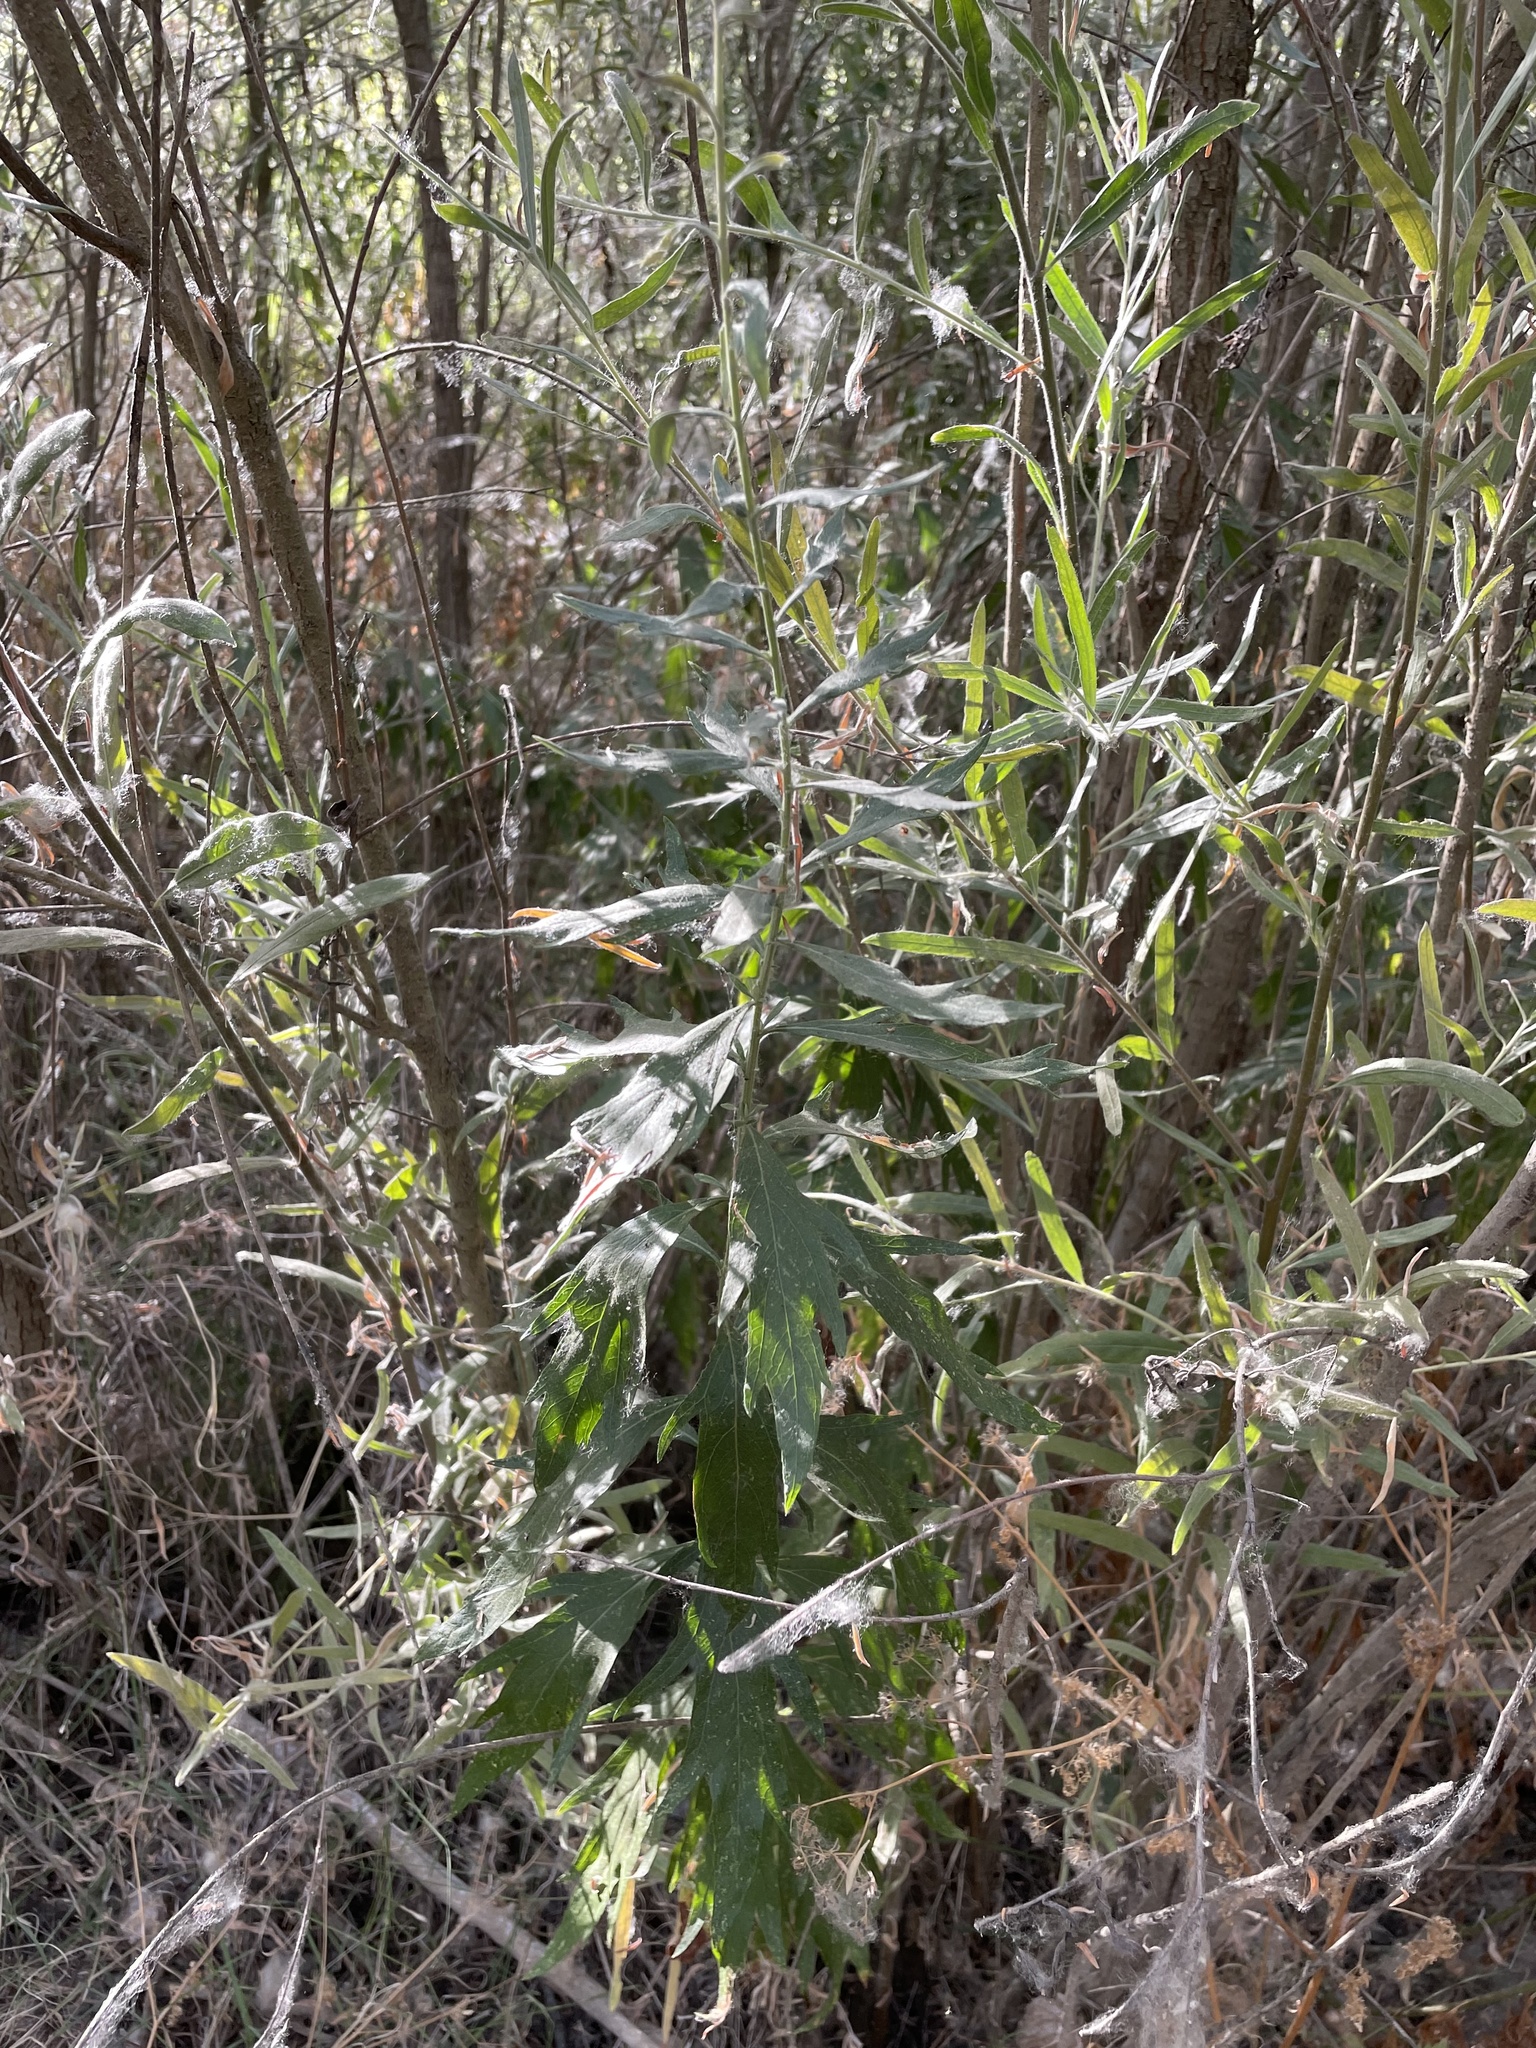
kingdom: Plantae
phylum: Tracheophyta
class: Magnoliopsida
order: Asterales
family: Asteraceae
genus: Artemisia
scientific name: Artemisia douglasiana
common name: Northwest mugwort
